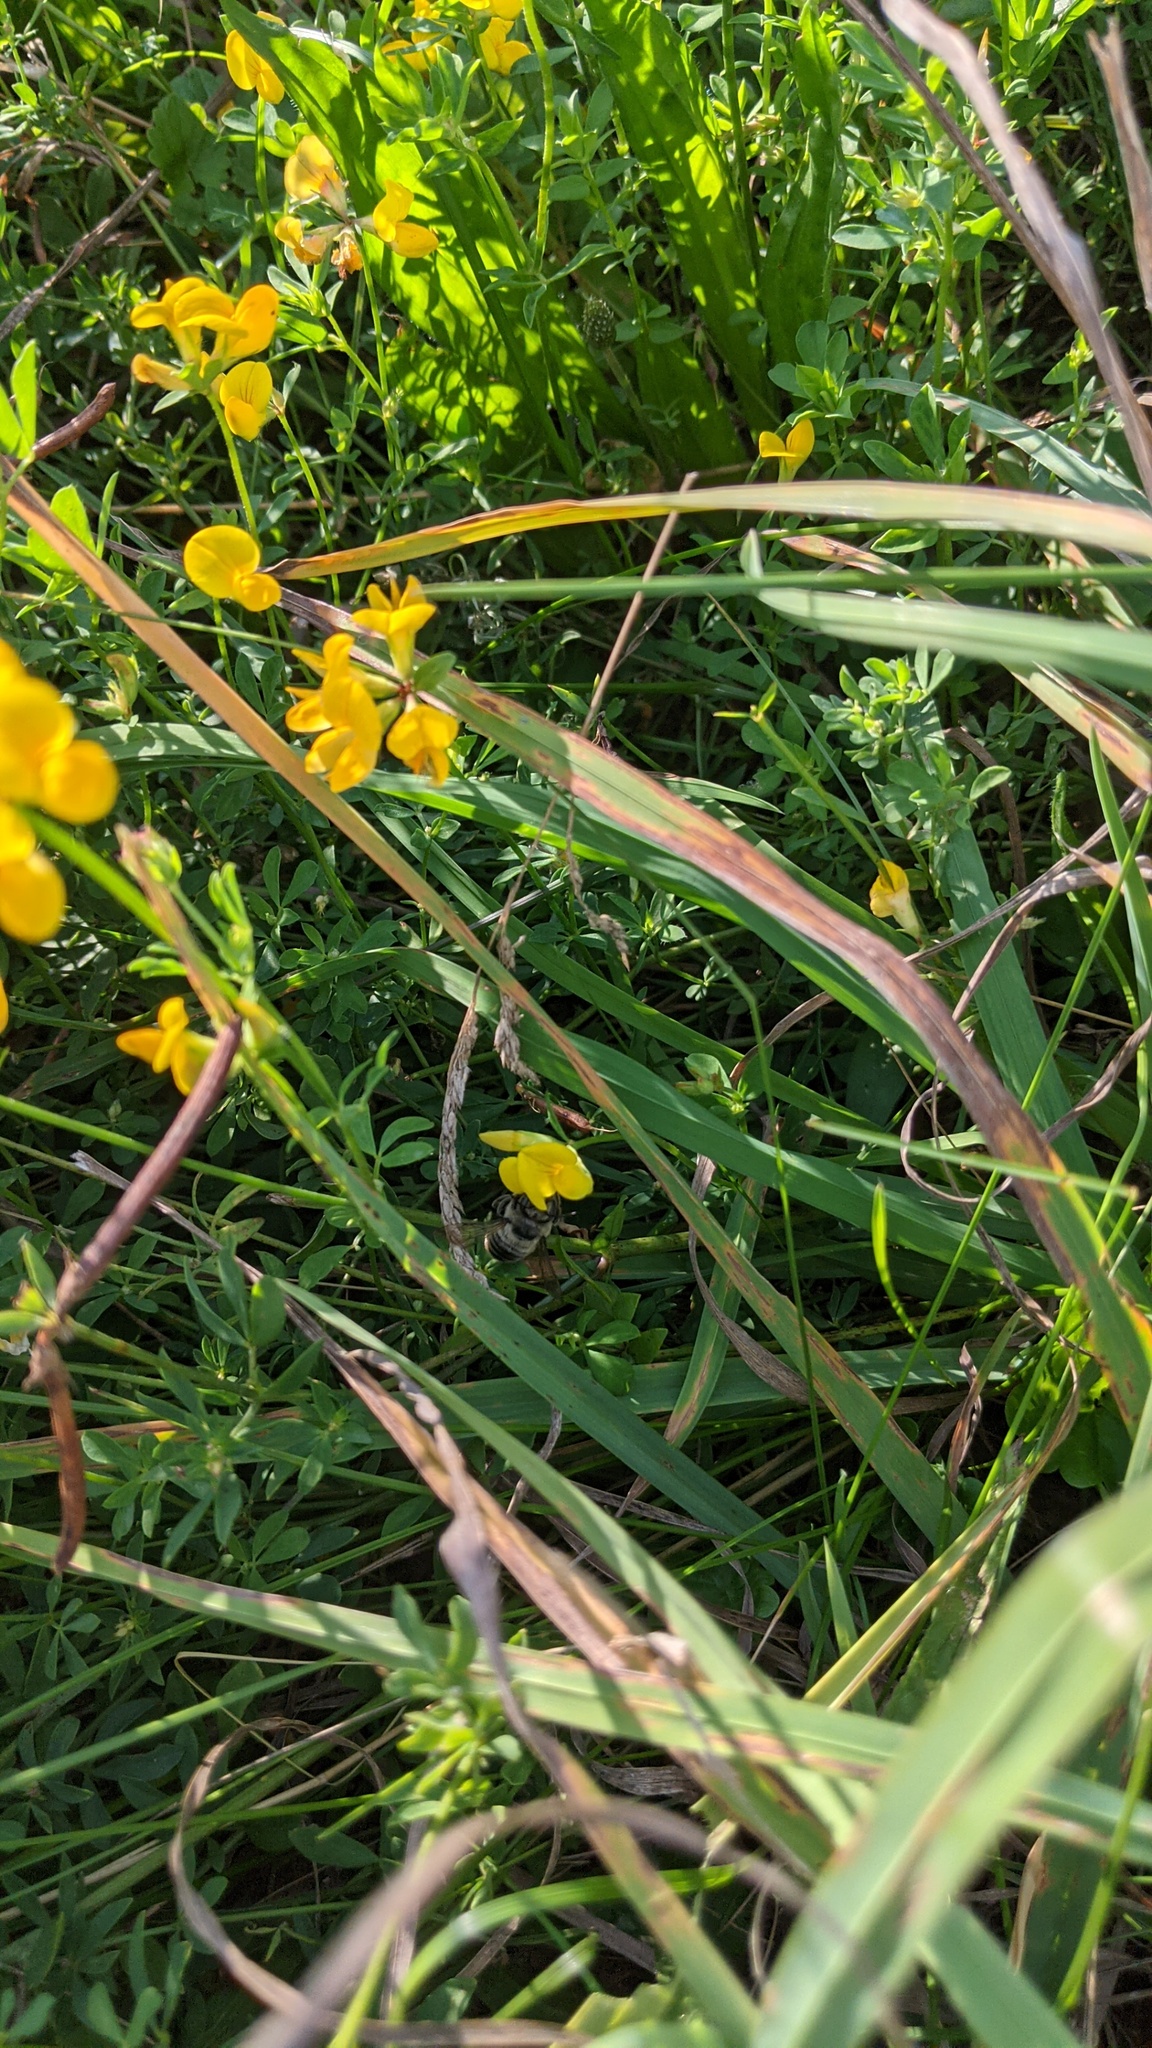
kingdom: Plantae
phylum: Tracheophyta
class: Magnoliopsida
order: Fabales
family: Fabaceae
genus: Lotus
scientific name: Lotus corniculatus
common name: Common bird's-foot-trefoil
